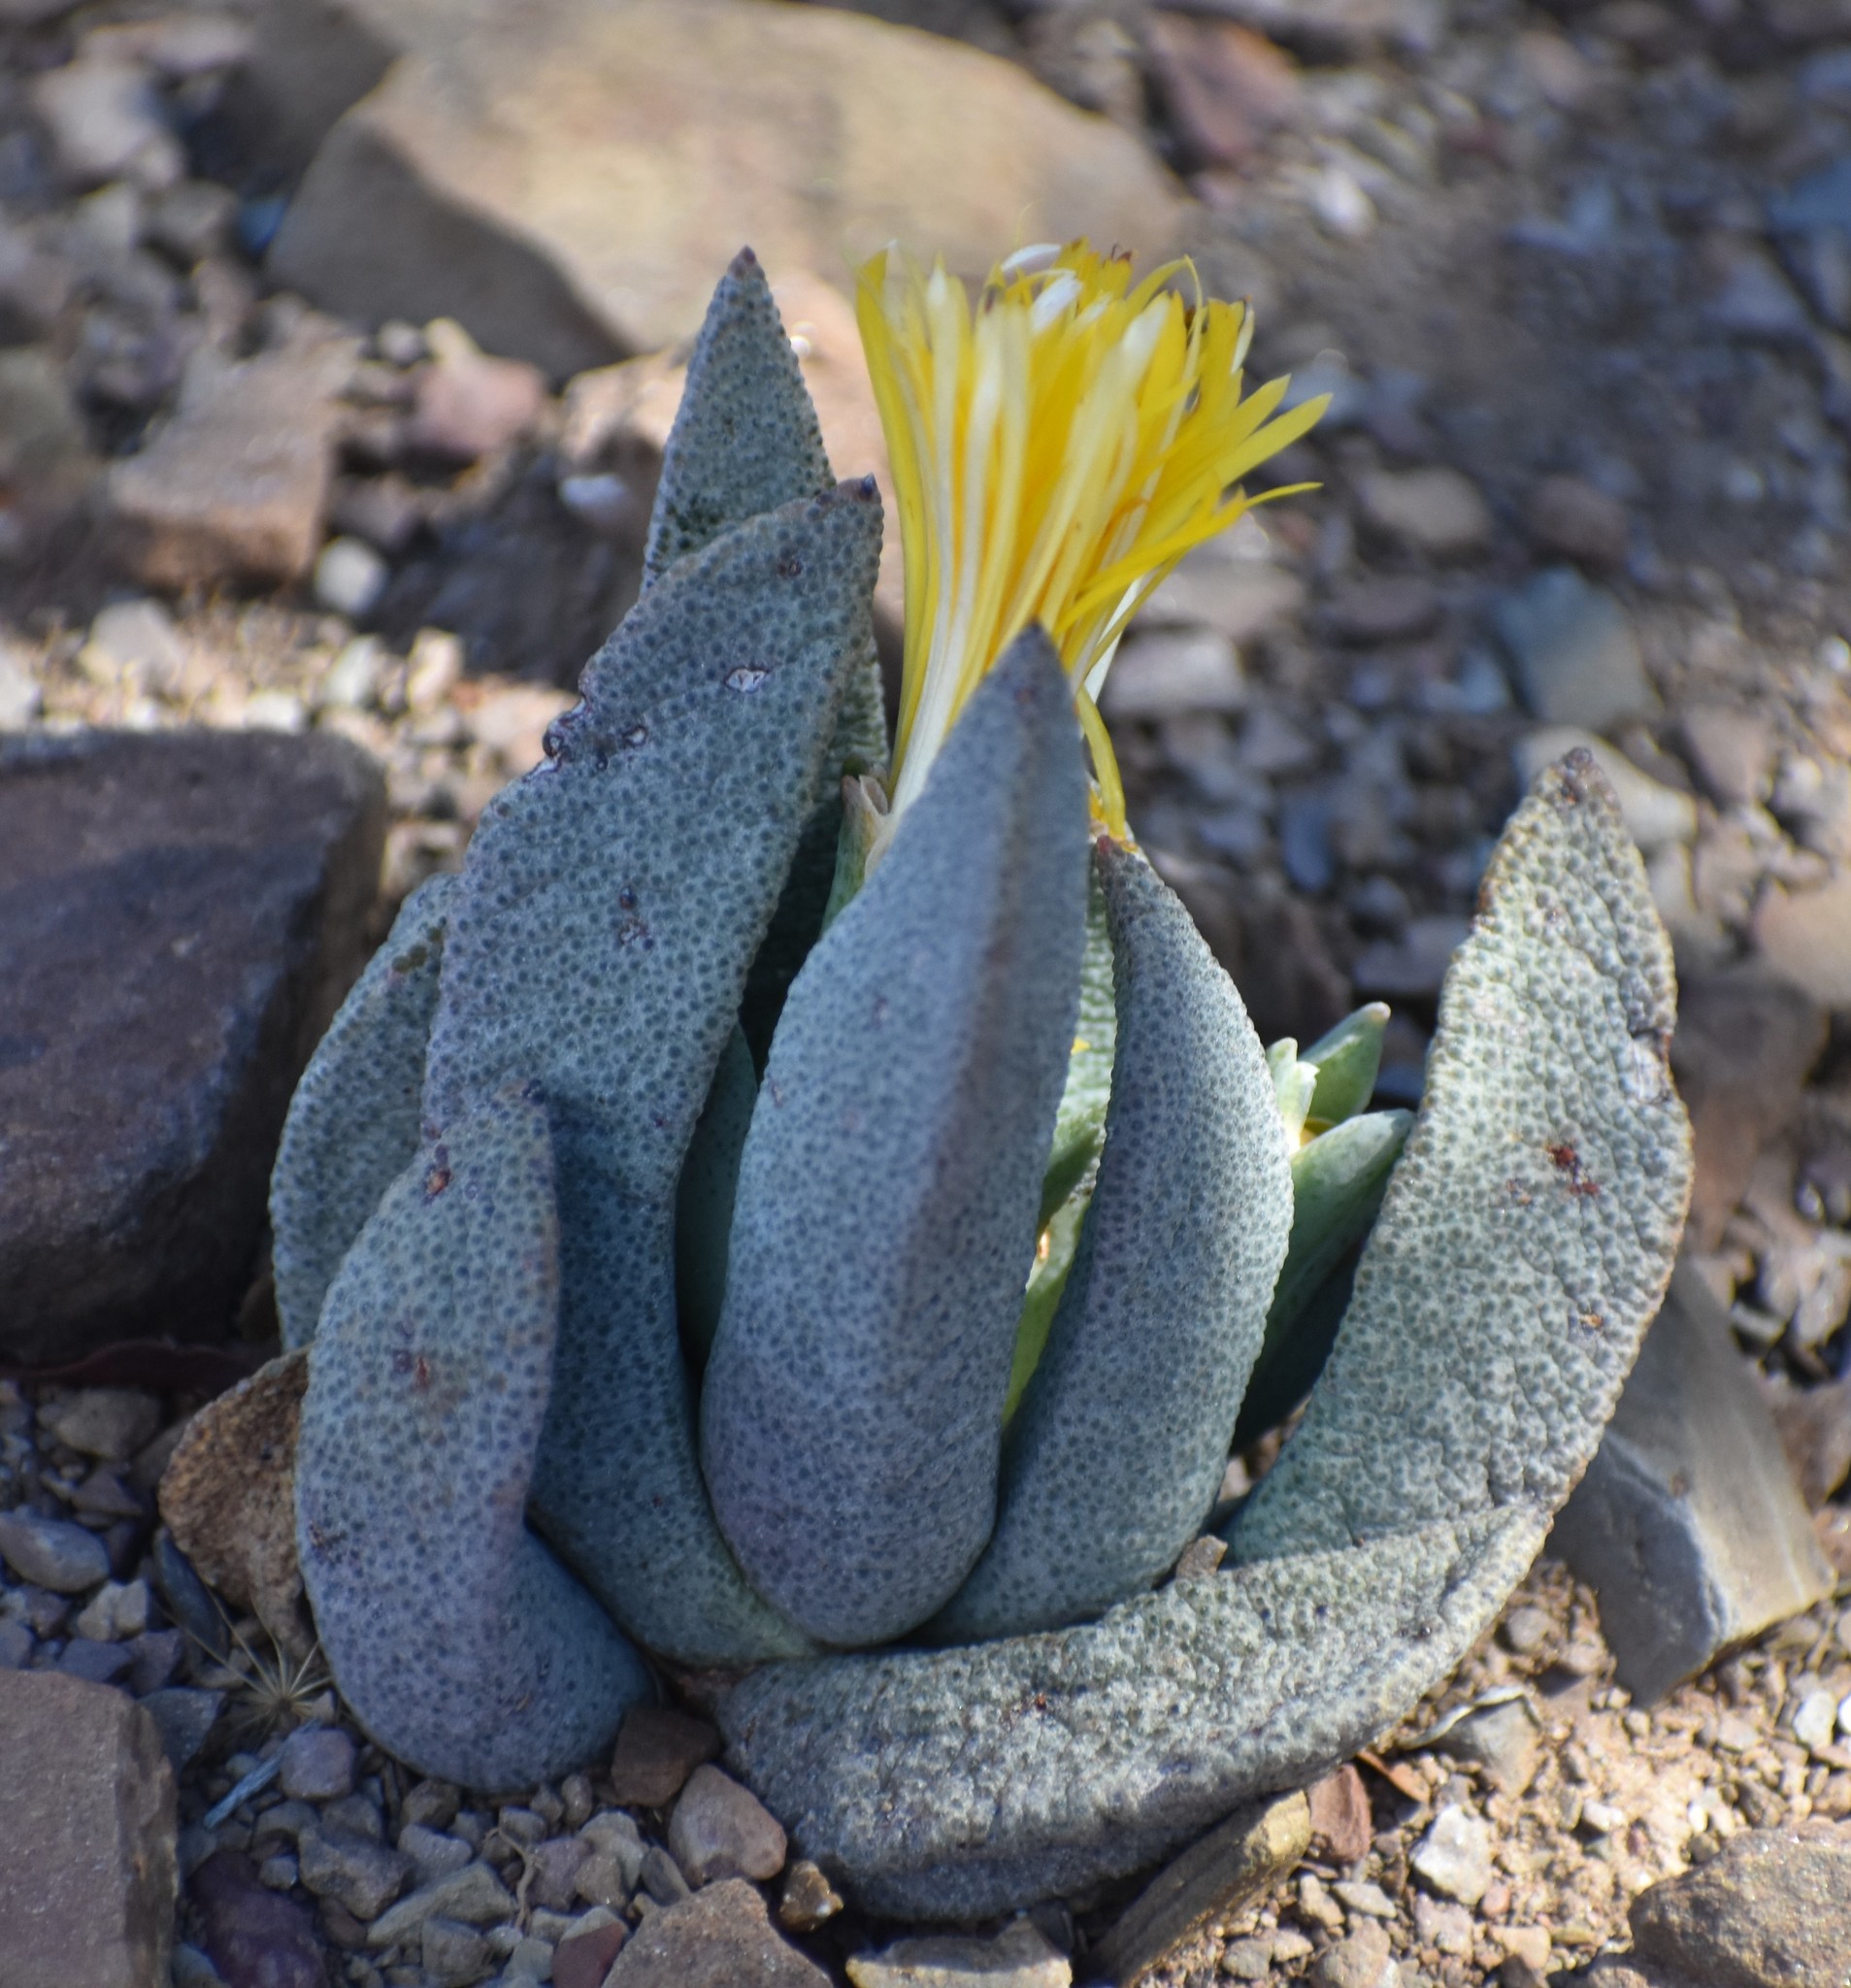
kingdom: Plantae
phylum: Tracheophyta
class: Magnoliopsida
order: Caryophyllales
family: Aizoaceae
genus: Pleiospilos
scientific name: Pleiospilos compactus
